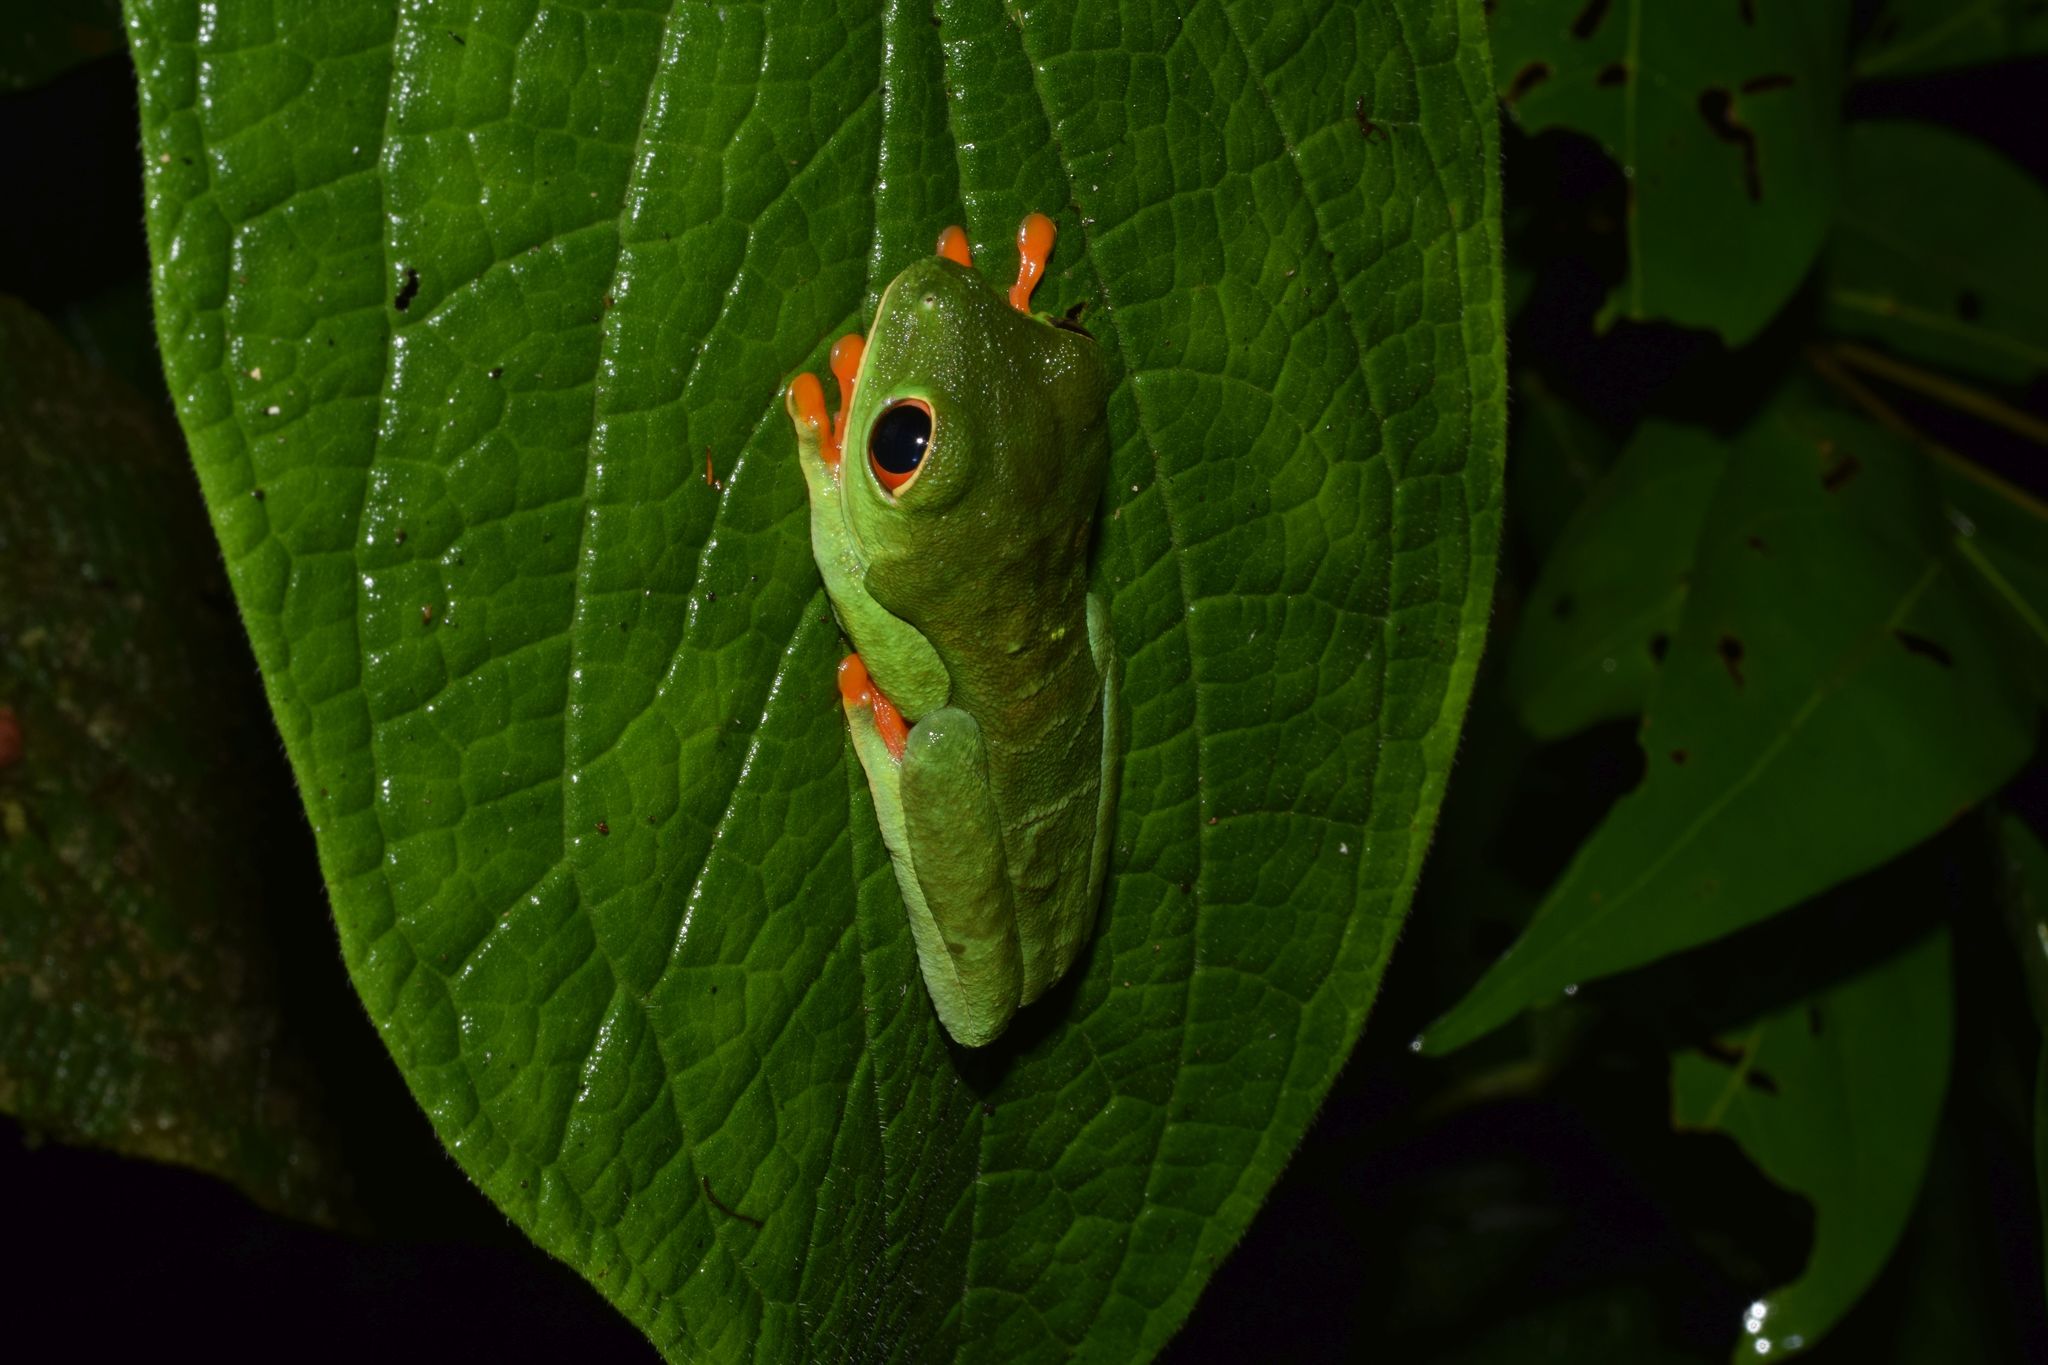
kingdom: Animalia
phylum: Chordata
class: Amphibia
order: Anura
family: Phyllomedusidae
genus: Agalychnis
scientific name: Agalychnis callidryas
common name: Red-eyed treefrog
